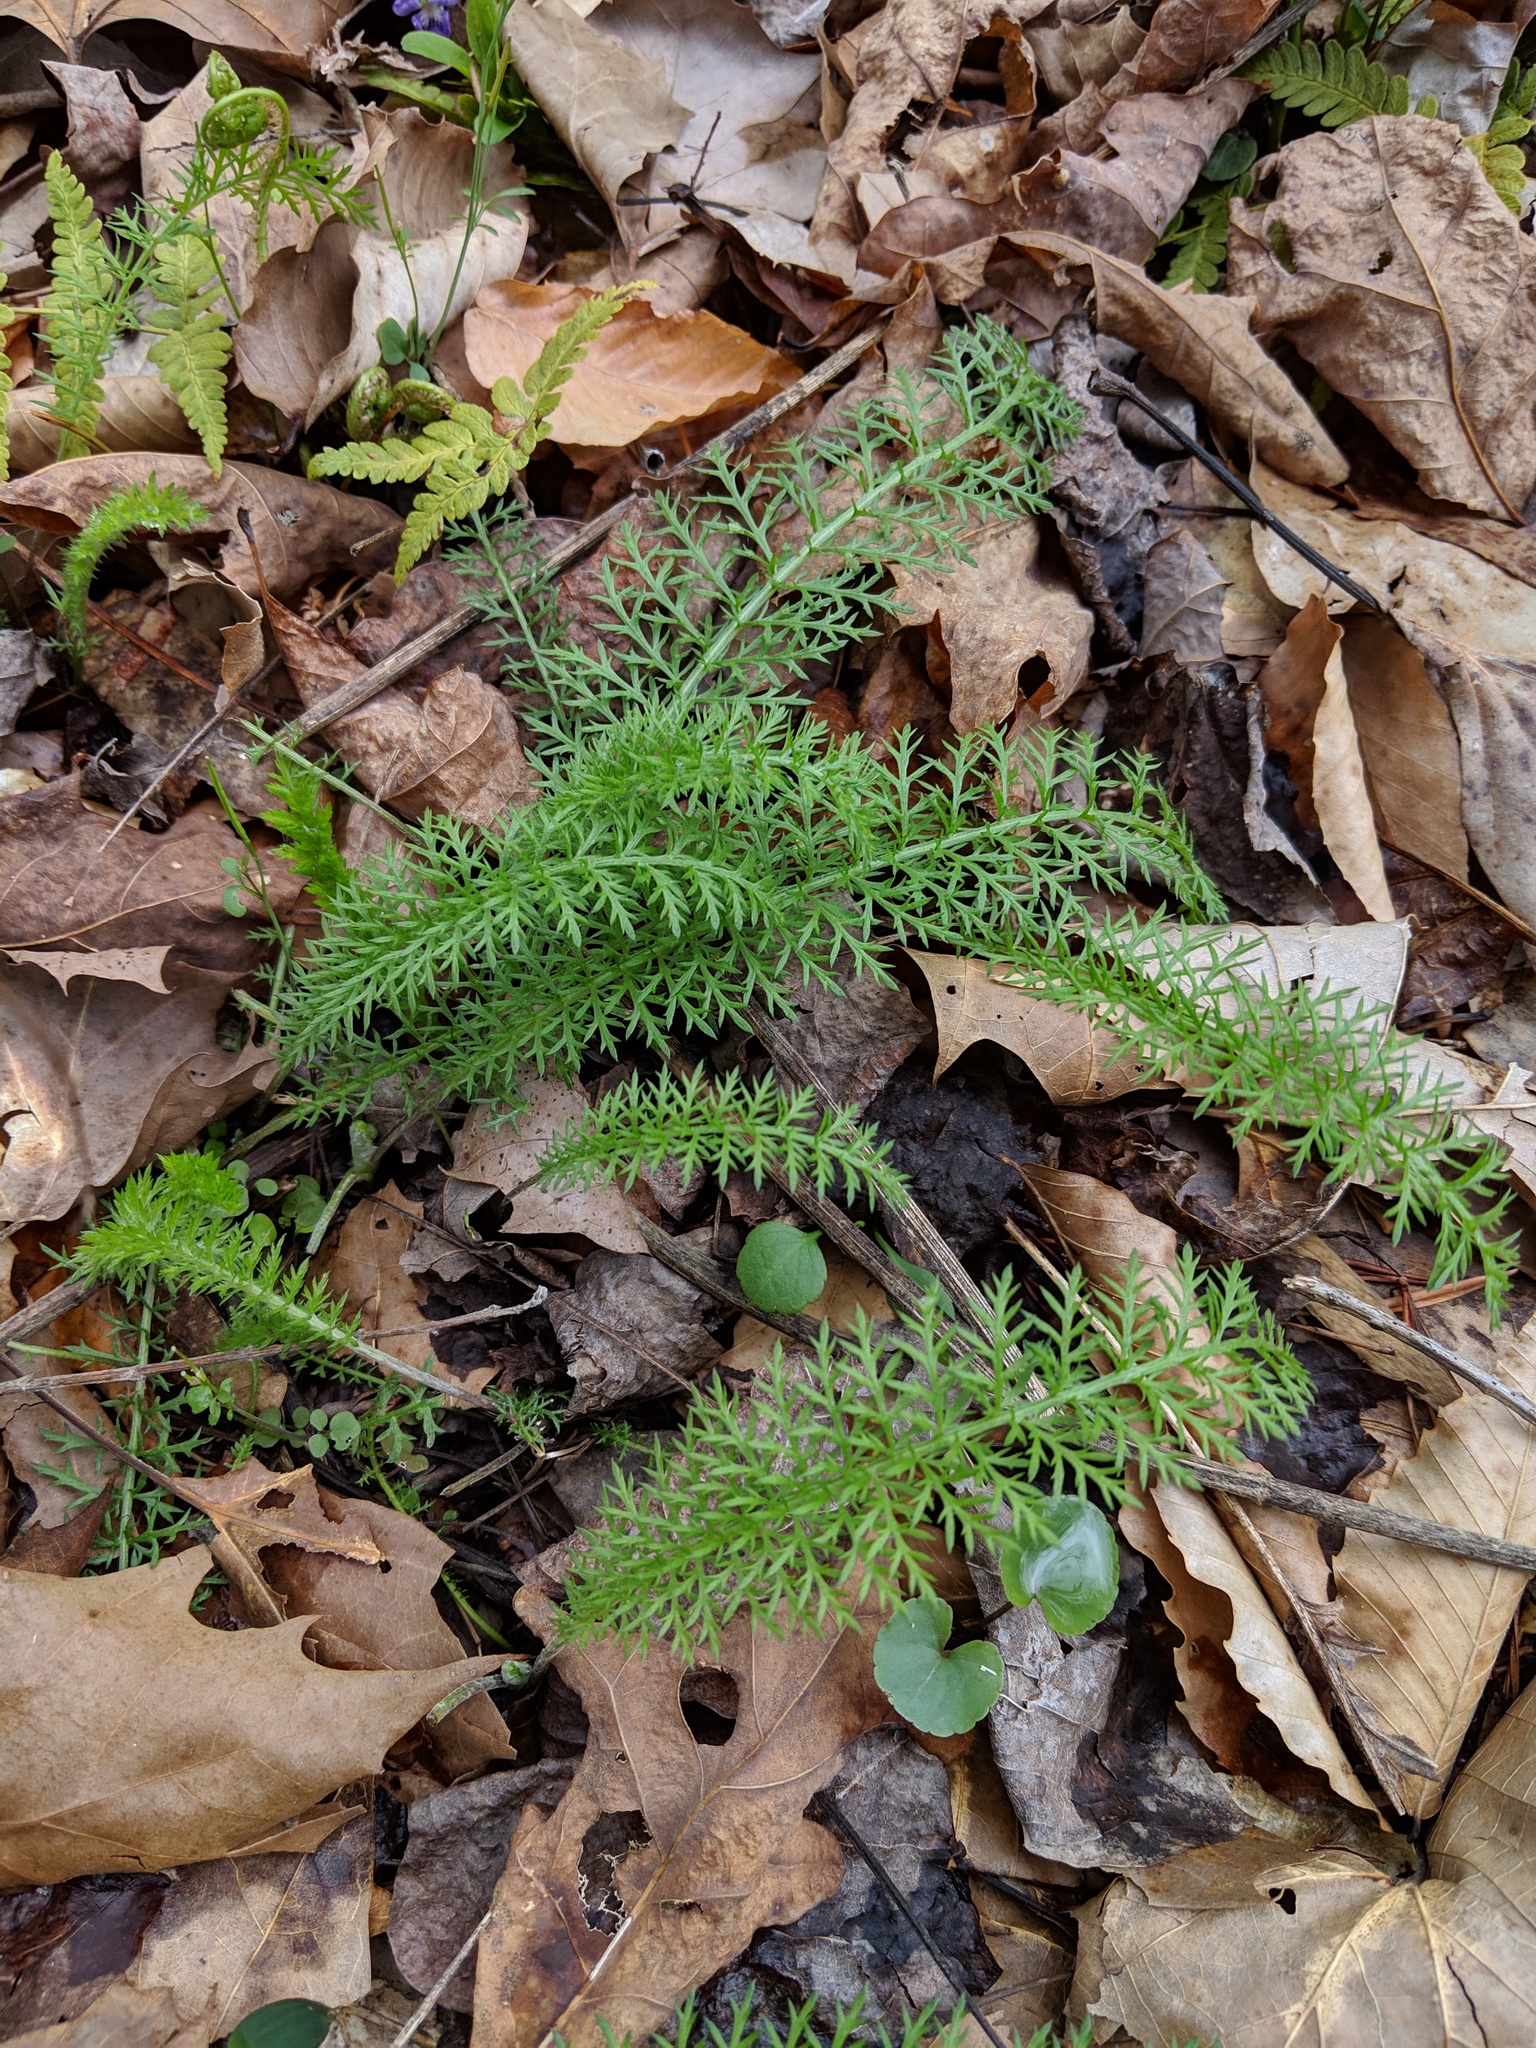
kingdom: Plantae
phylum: Tracheophyta
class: Magnoliopsida
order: Asterales
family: Asteraceae
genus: Achillea
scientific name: Achillea millefolium
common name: Yarrow
